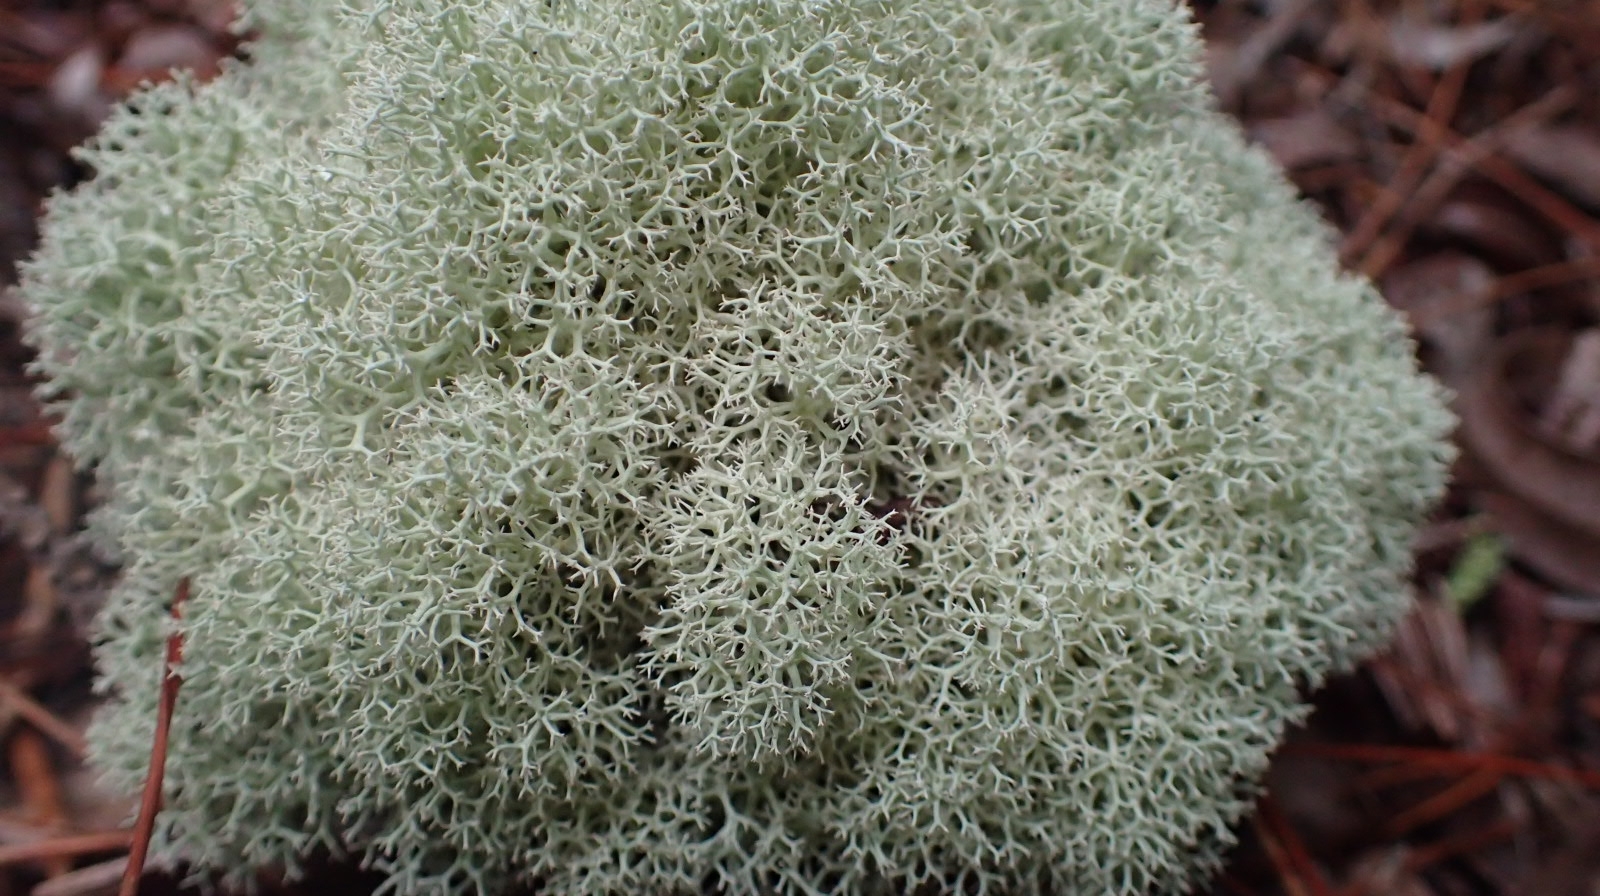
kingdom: Fungi
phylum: Ascomycota
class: Lecanoromycetes
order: Lecanorales
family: Cladoniaceae
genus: Cladonia
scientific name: Cladonia confusa
